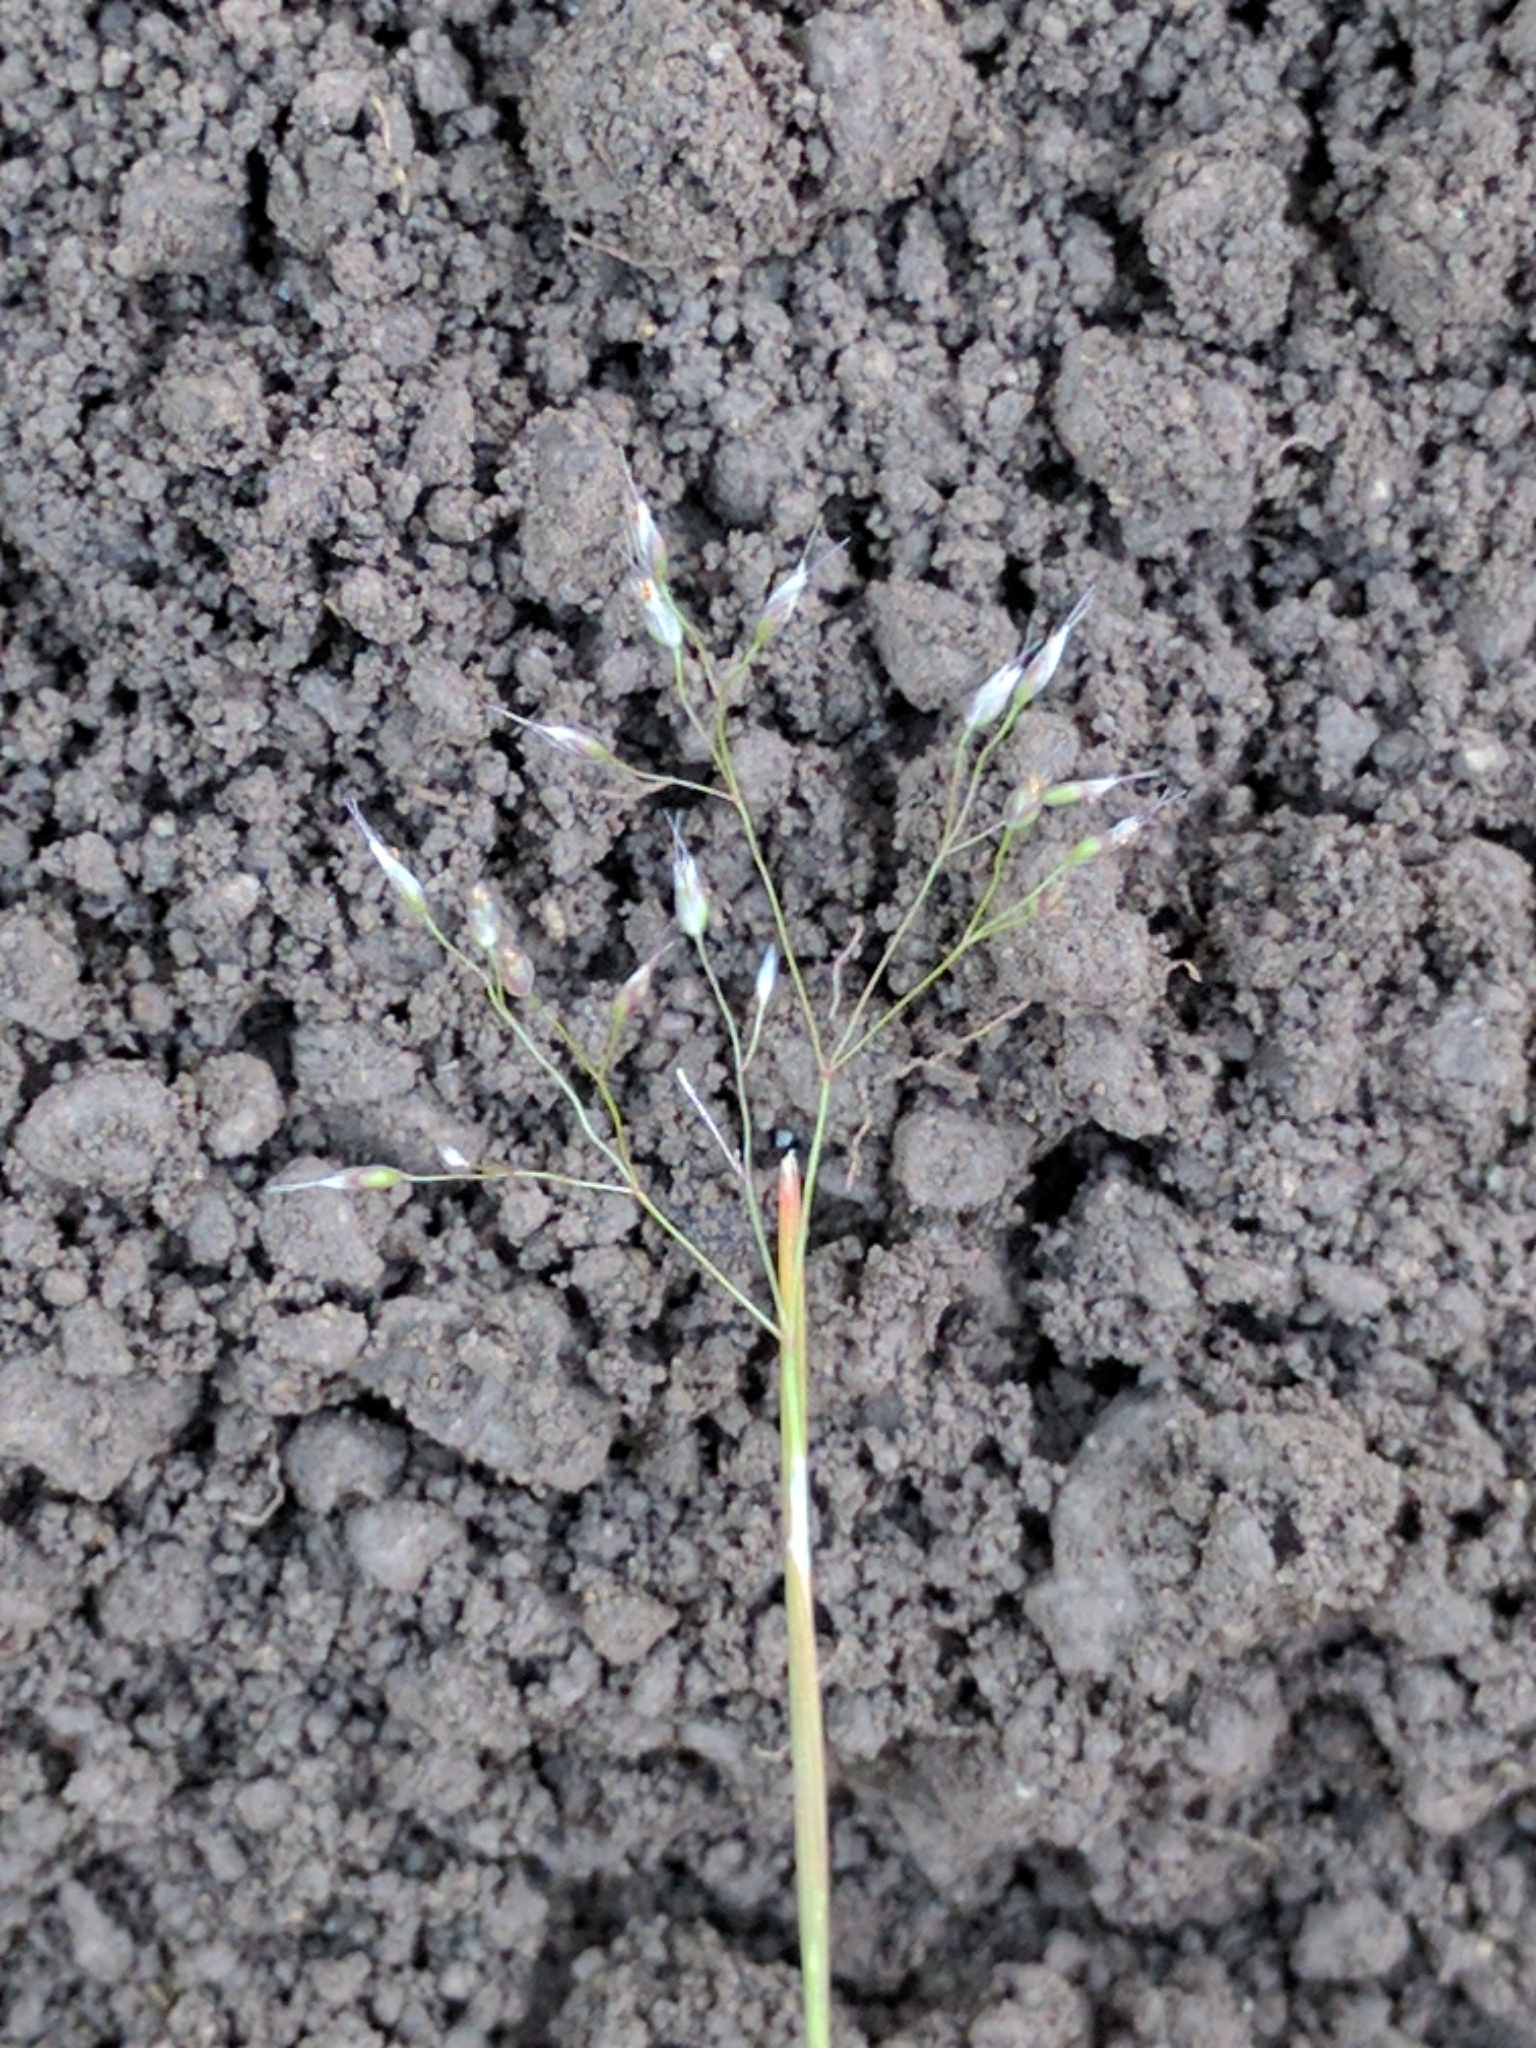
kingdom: Plantae
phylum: Tracheophyta
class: Liliopsida
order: Poales
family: Poaceae
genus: Aira
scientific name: Aira caryophyllea
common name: Silver hairgrass
